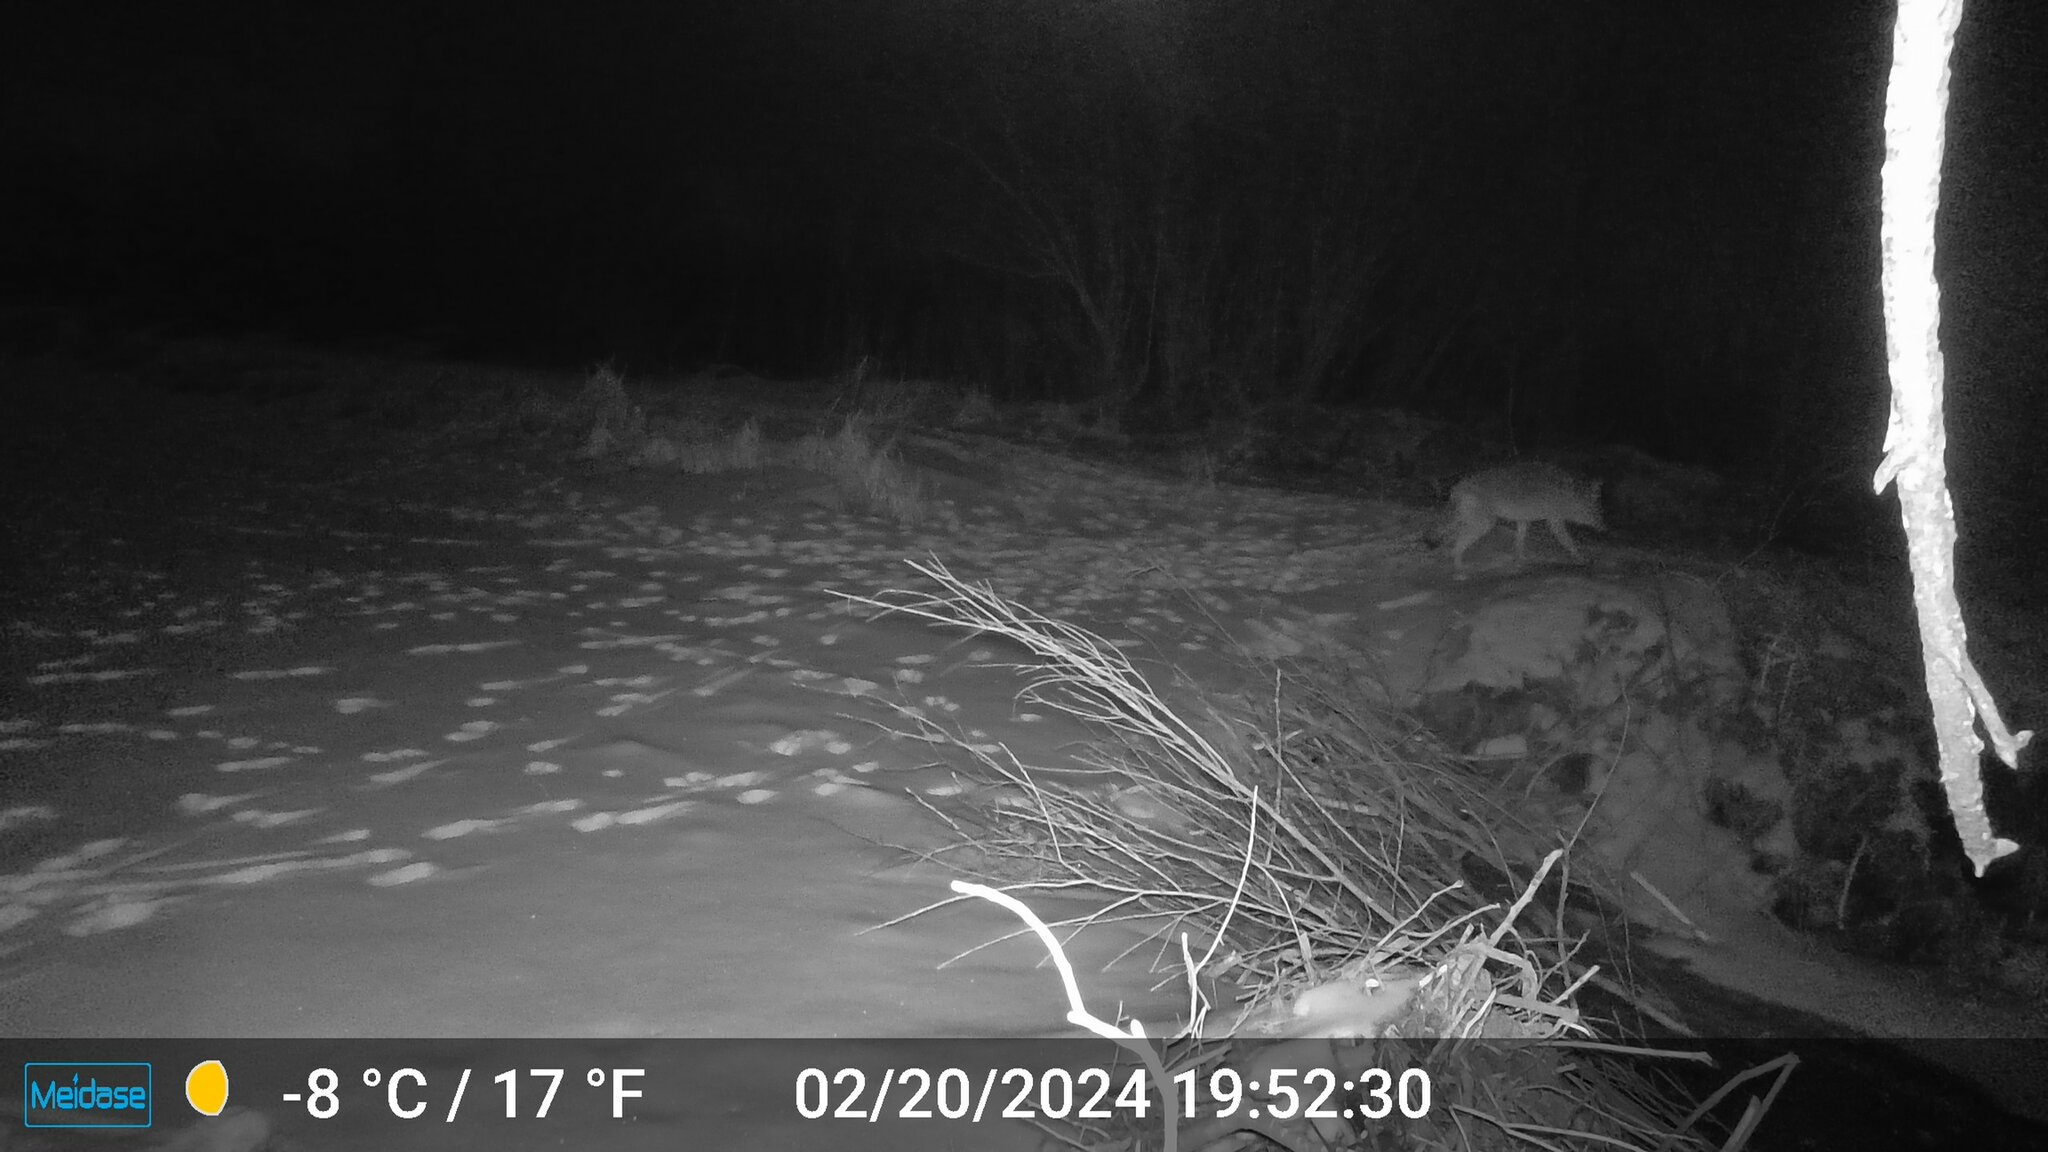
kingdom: Animalia
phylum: Chordata
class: Mammalia
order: Carnivora
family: Canidae
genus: Canis
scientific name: Canis latrans
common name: Coyote
